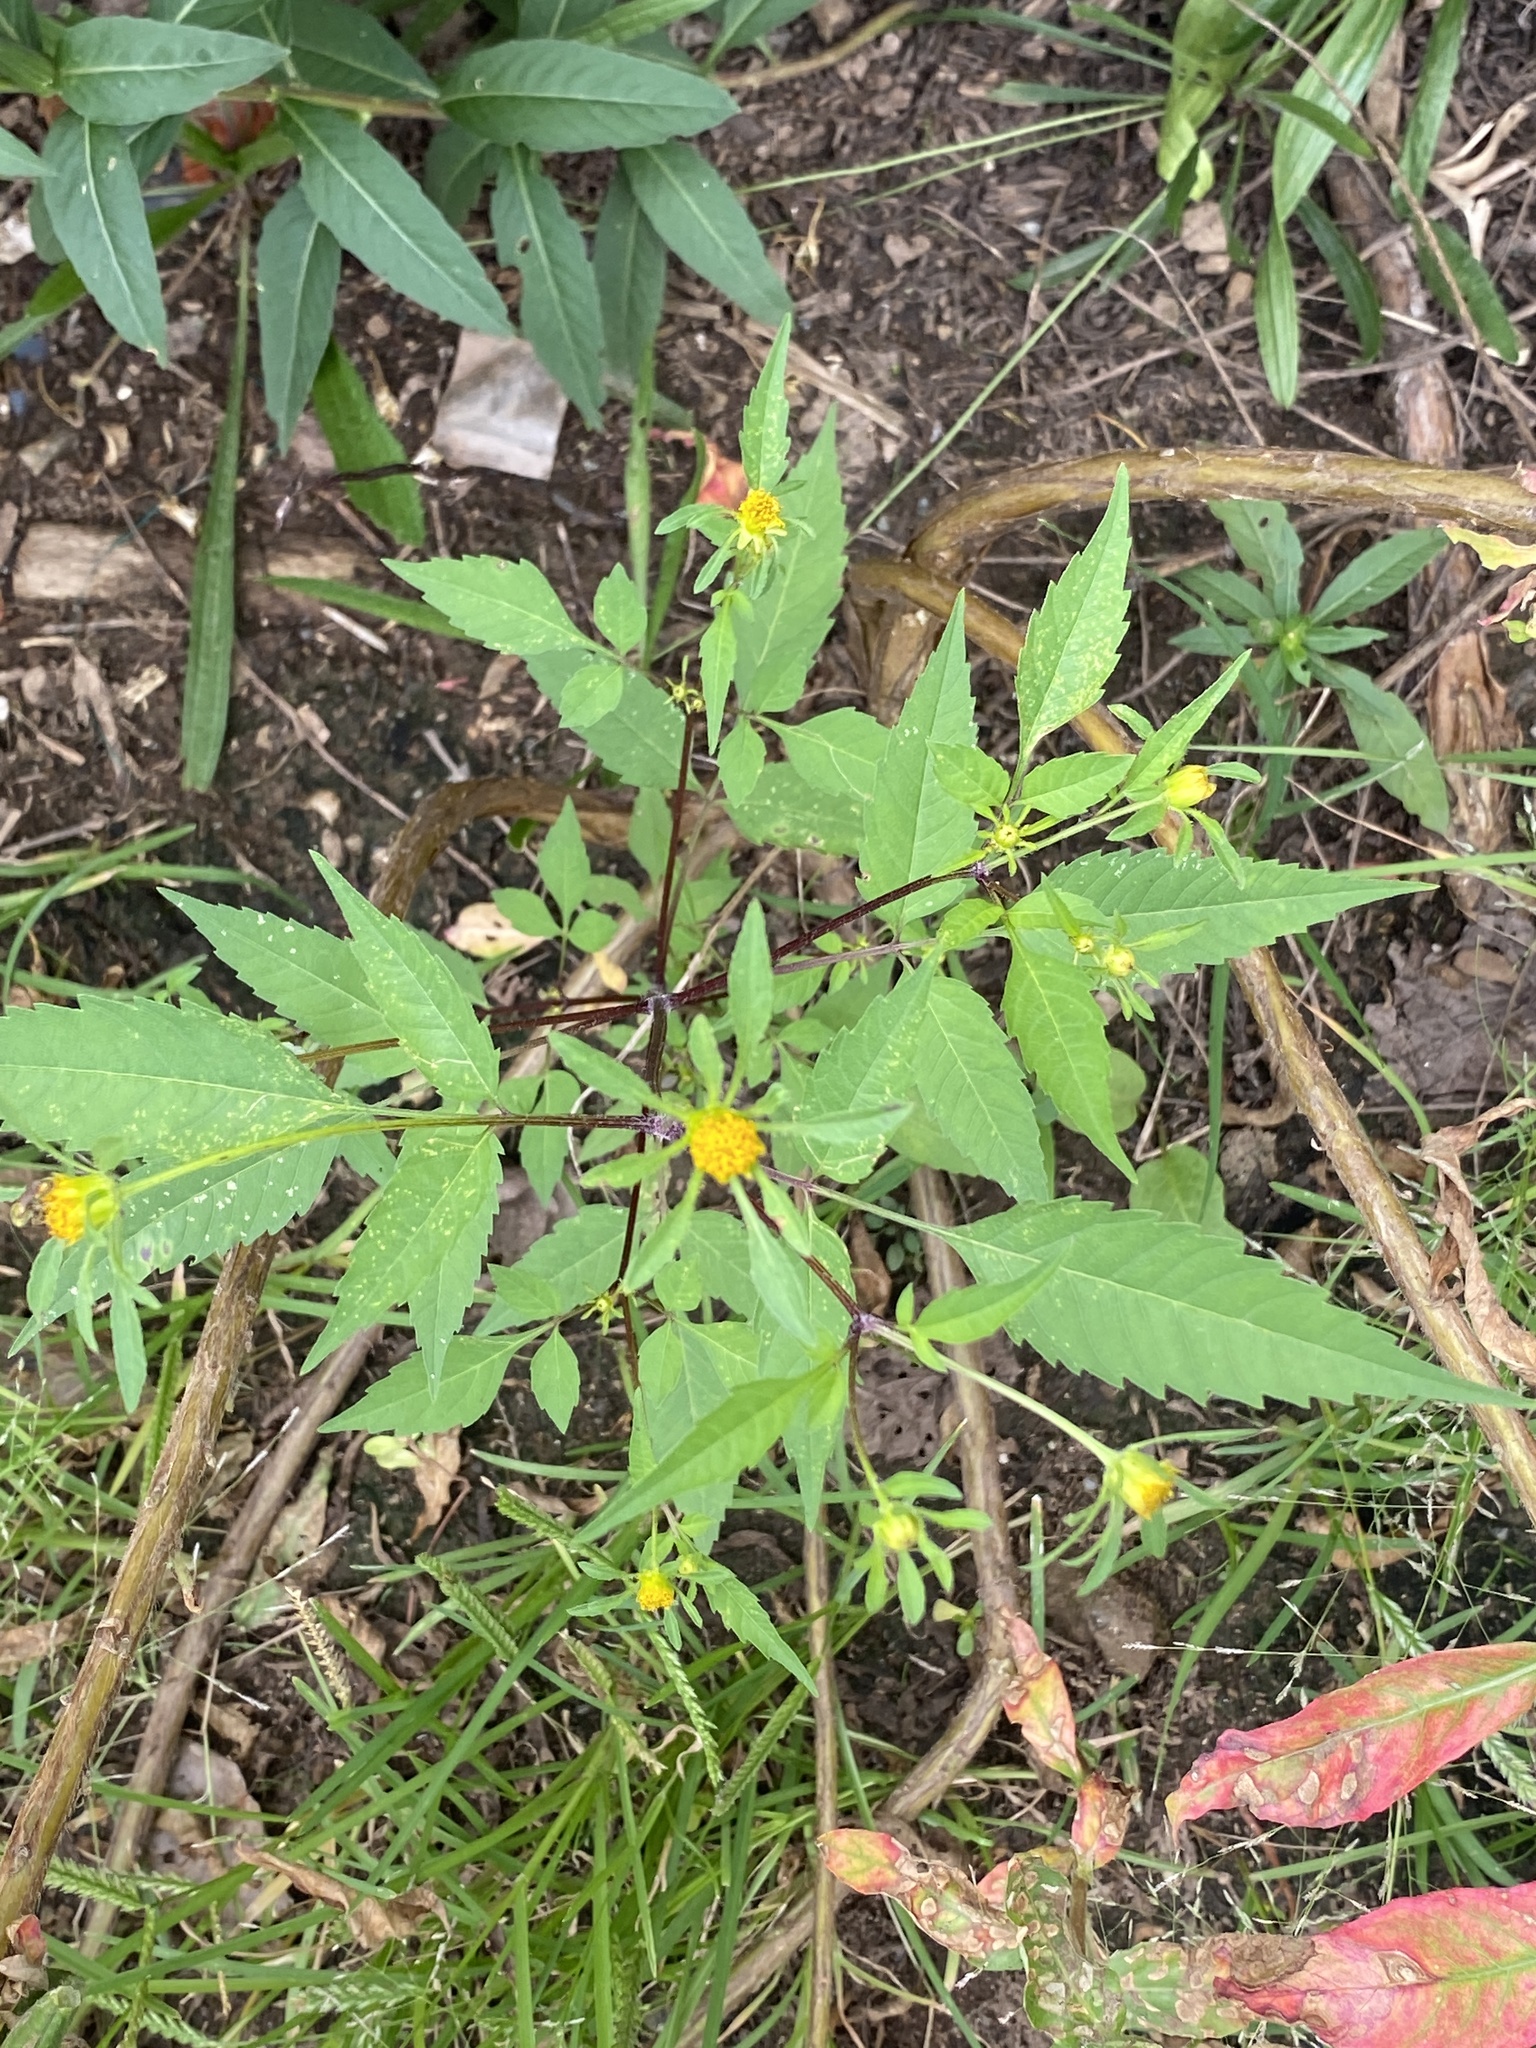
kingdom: Plantae
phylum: Tracheophyta
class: Magnoliopsida
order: Asterales
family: Asteraceae
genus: Bidens
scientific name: Bidens frondosa
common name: Beggarticks
